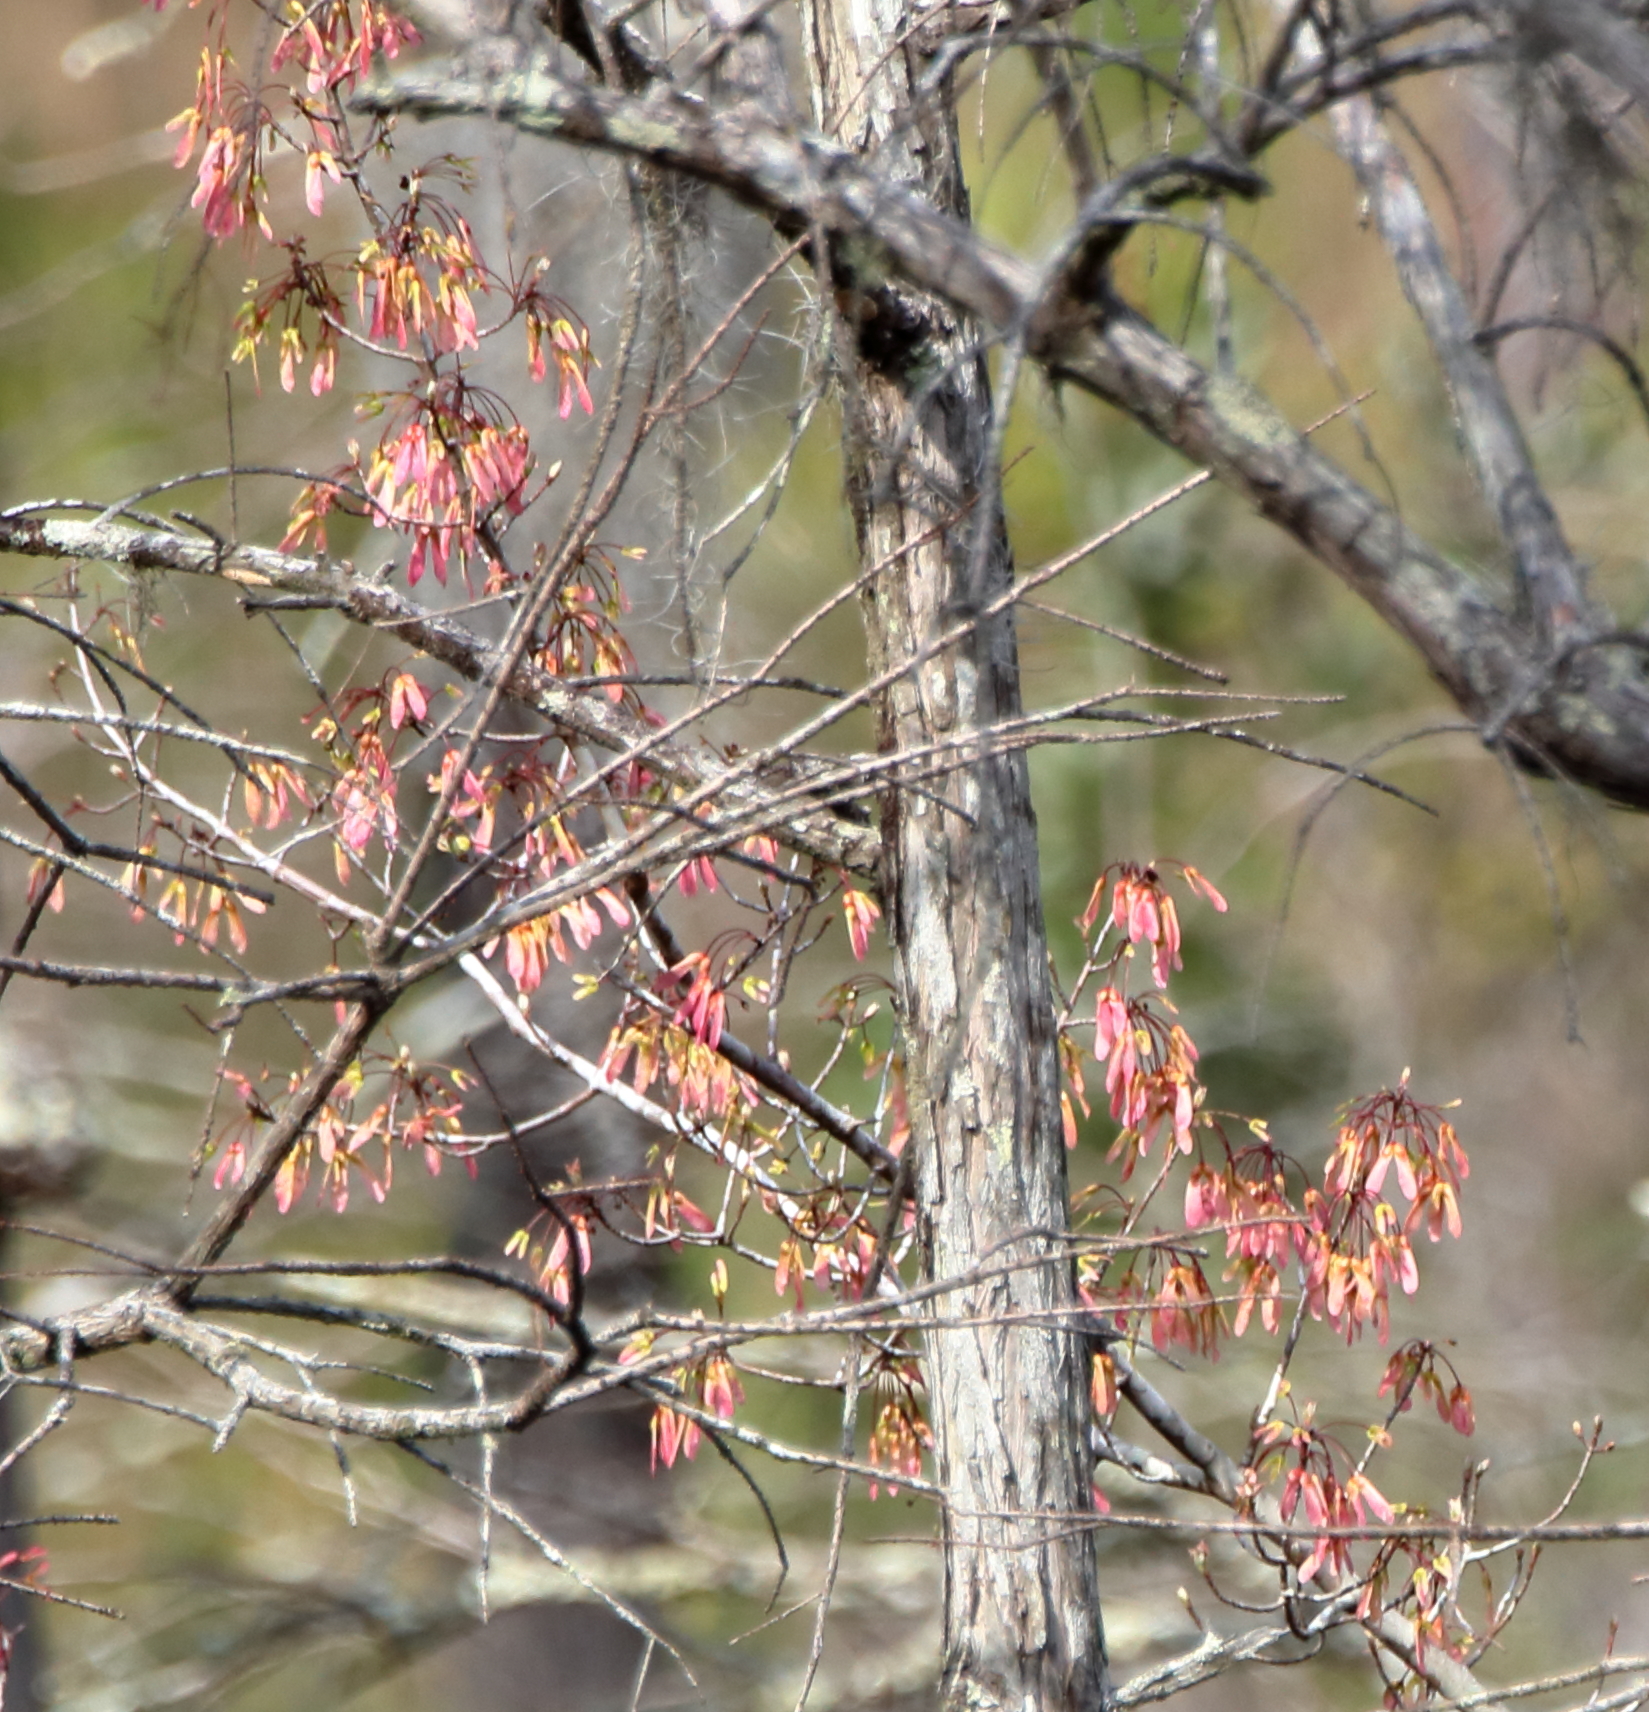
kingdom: Plantae
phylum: Tracheophyta
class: Magnoliopsida
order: Sapindales
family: Sapindaceae
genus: Acer
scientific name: Acer rubrum
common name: Red maple
